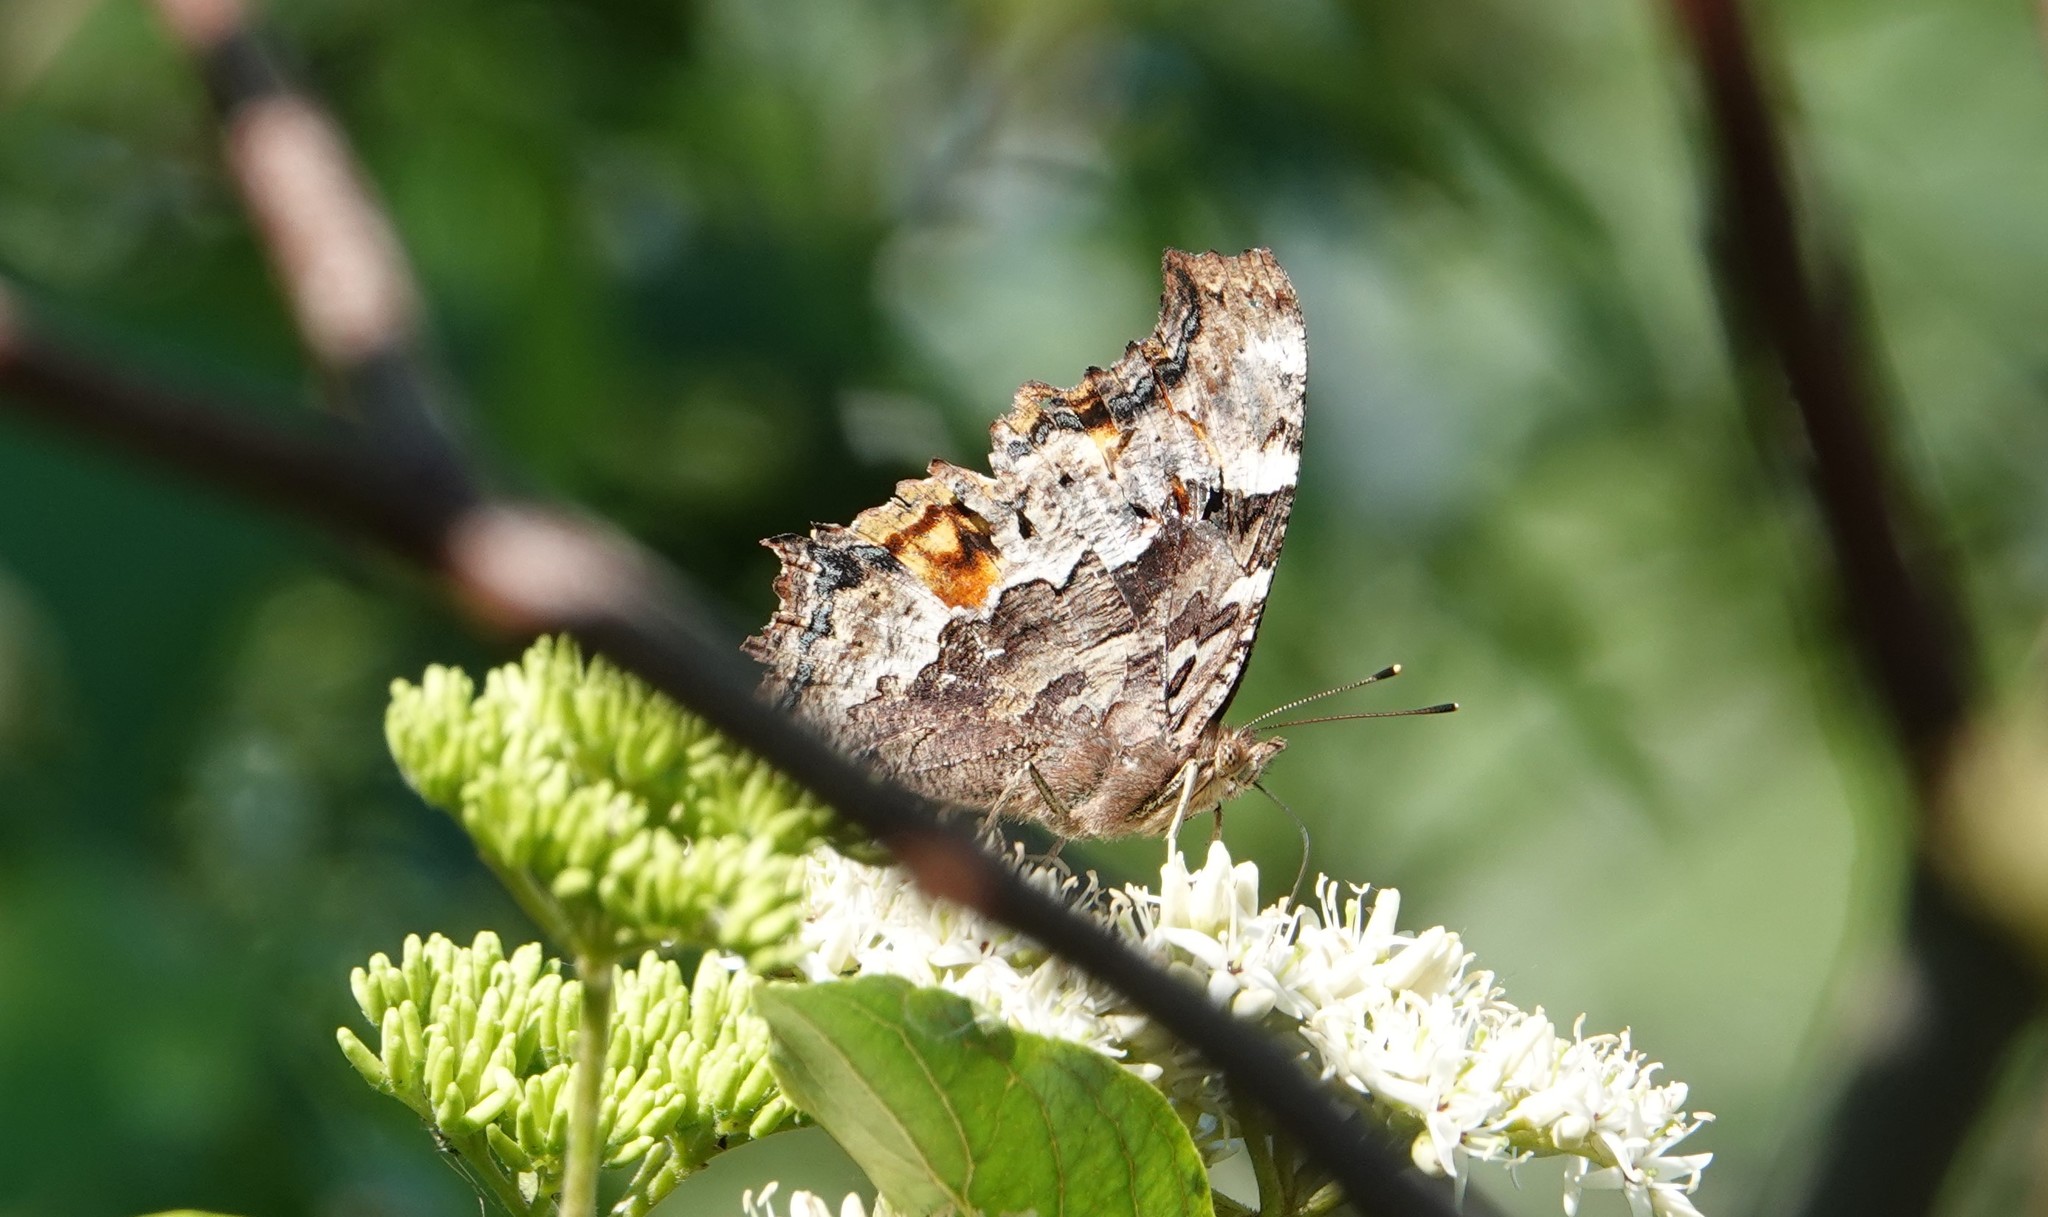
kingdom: Animalia
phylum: Arthropoda
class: Insecta
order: Lepidoptera
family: Nymphalidae
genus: Polygonia
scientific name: Polygonia vaualbum
